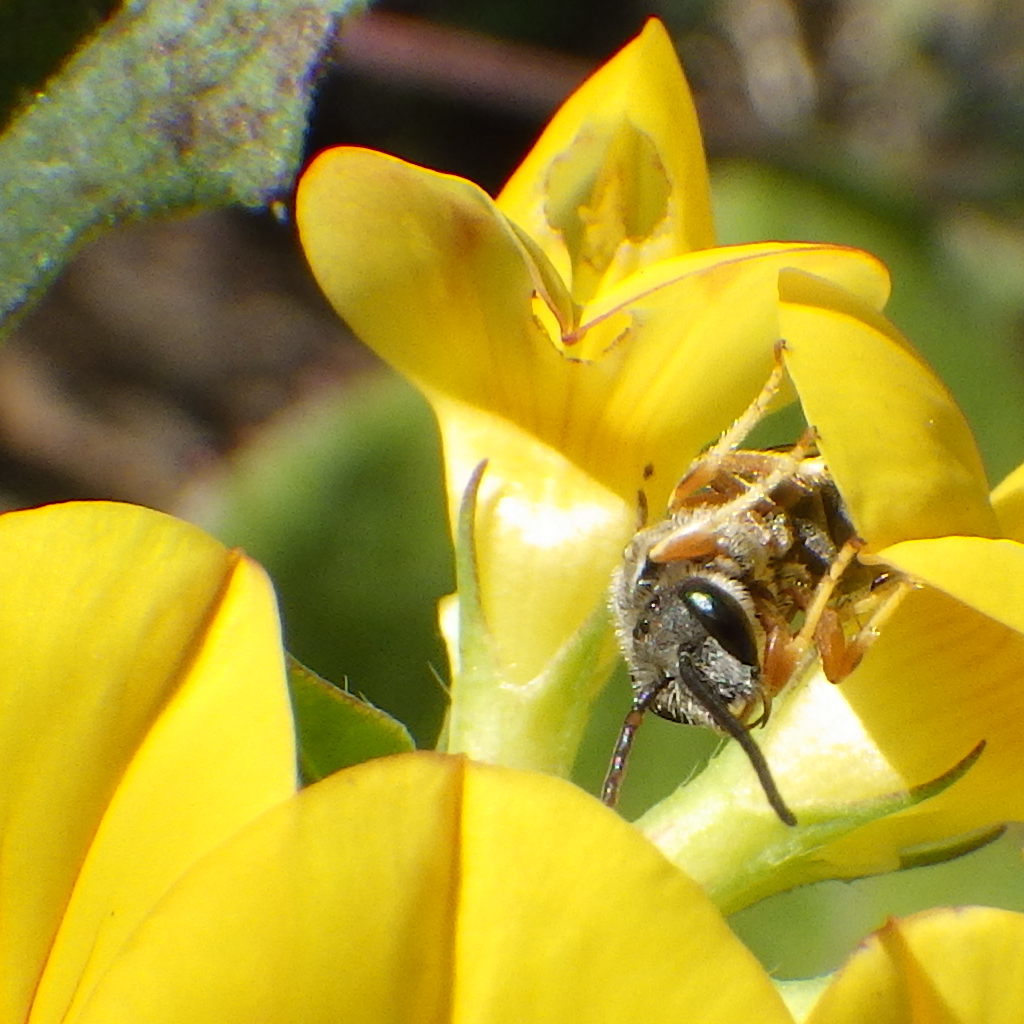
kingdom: Animalia
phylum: Arthropoda
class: Insecta
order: Hymenoptera
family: Halictidae
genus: Halictus
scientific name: Halictus ligatus
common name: Ligated furrow bee
